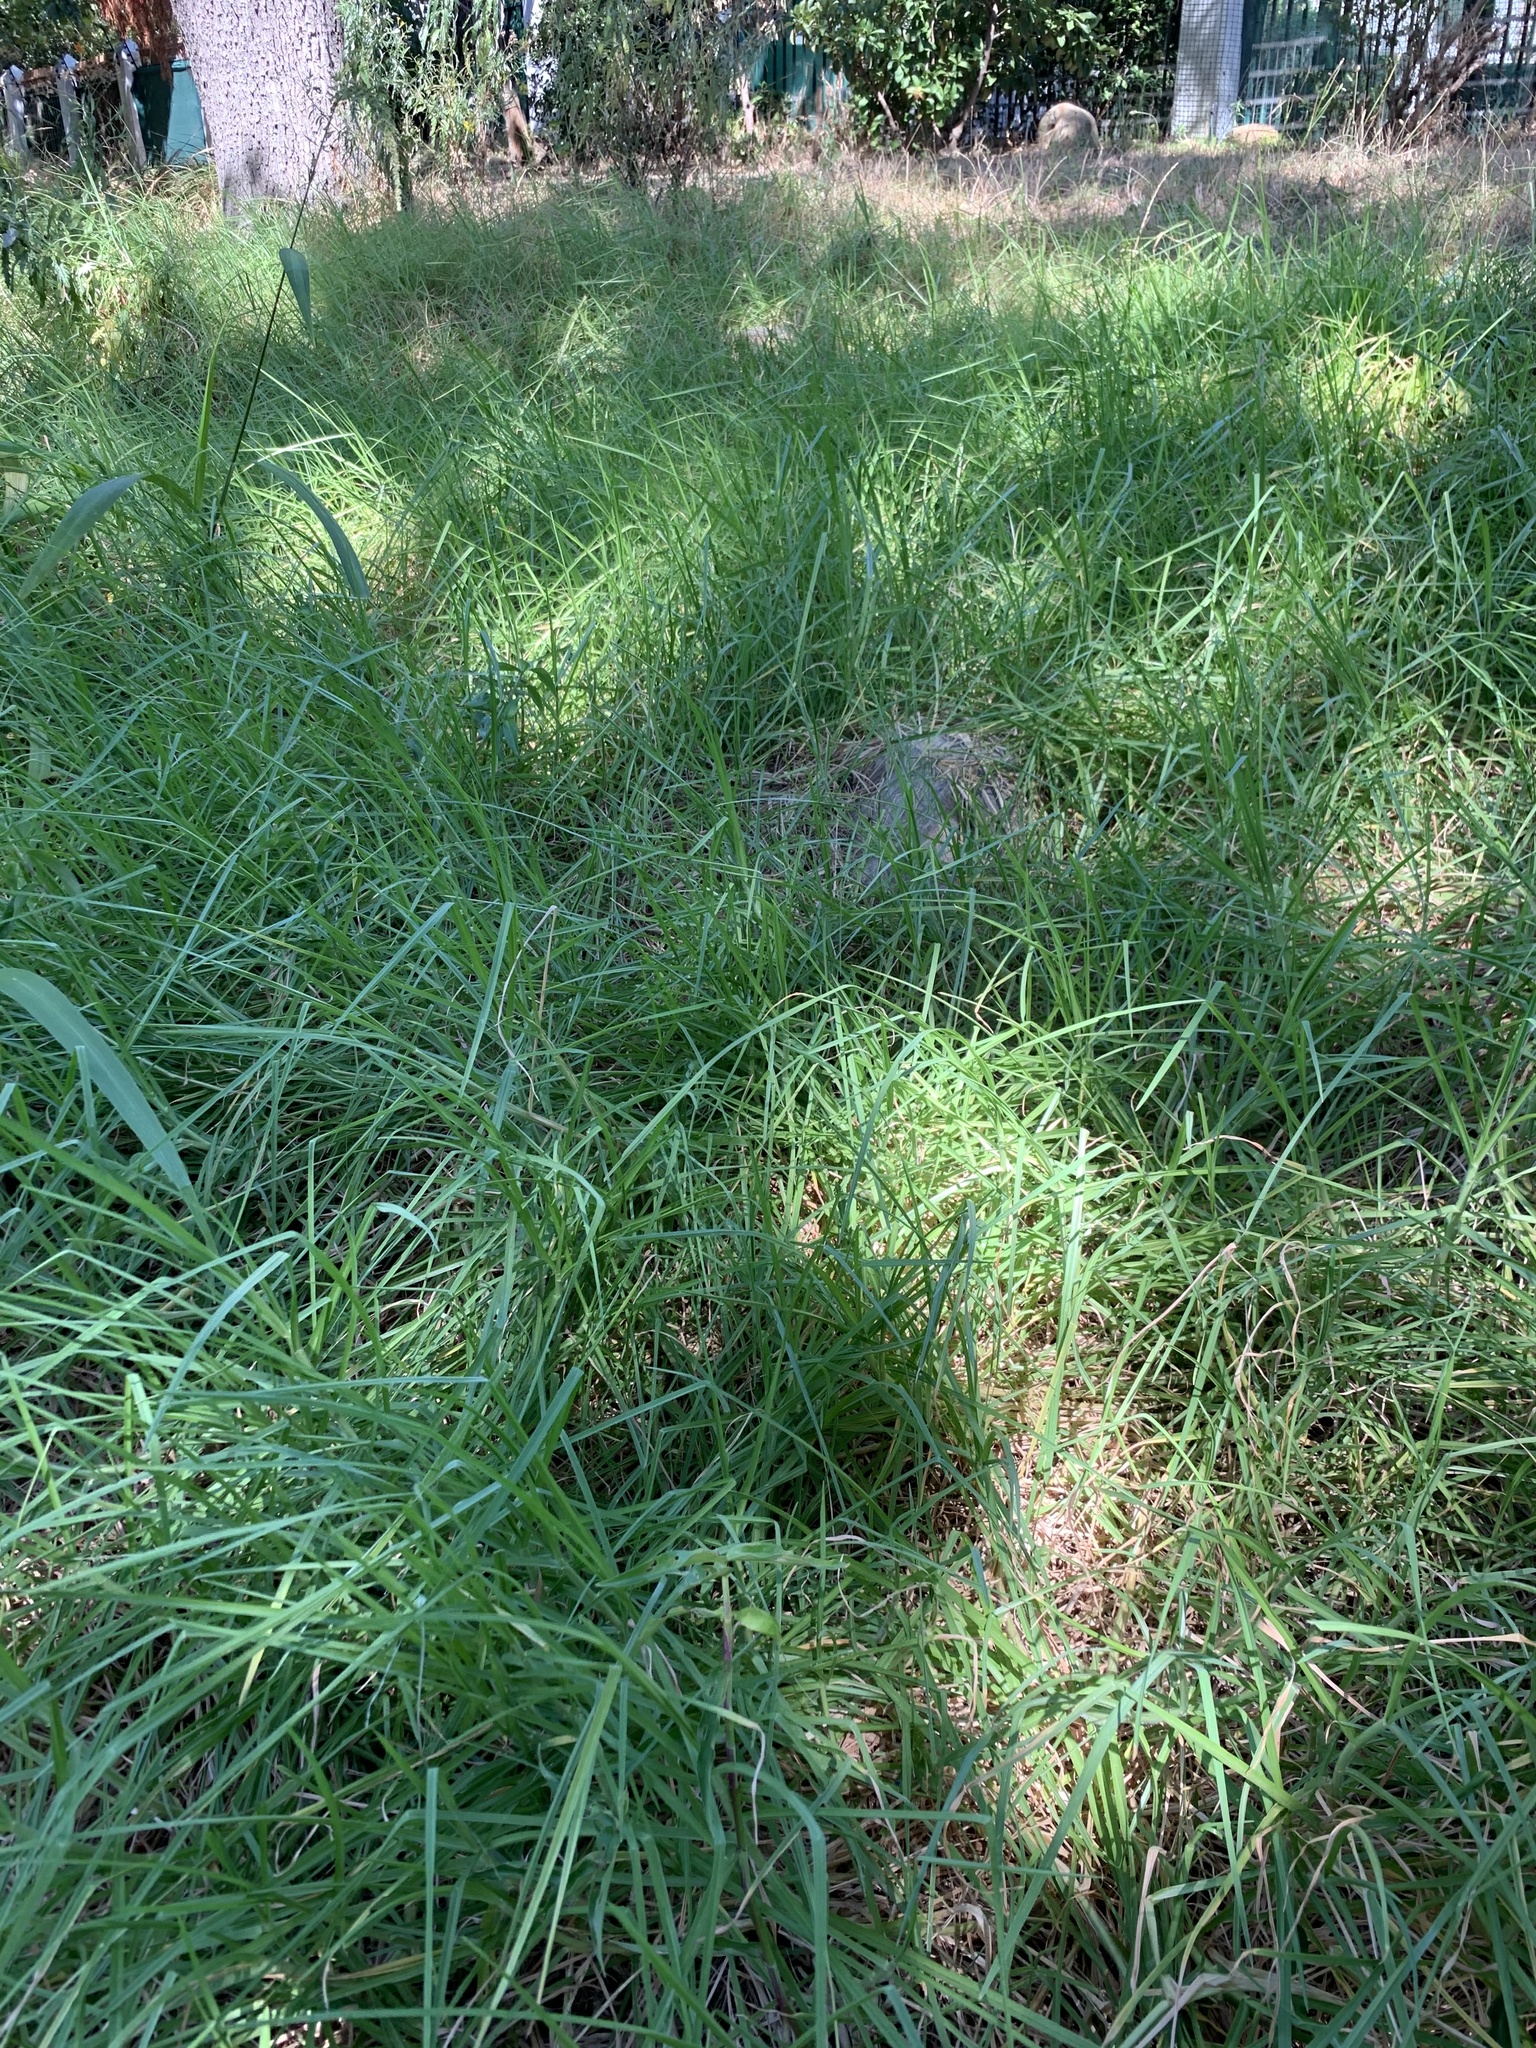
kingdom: Plantae
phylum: Tracheophyta
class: Liliopsida
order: Poales
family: Poaceae
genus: Cenchrus
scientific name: Cenchrus clandestinus
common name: Kikuyugrass
